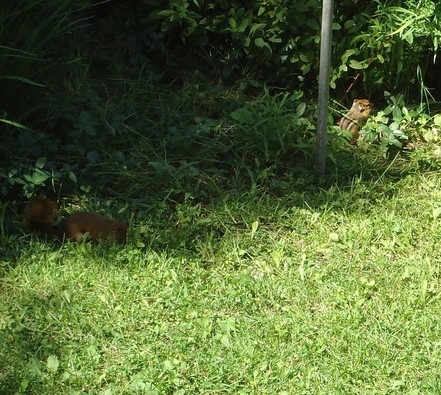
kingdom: Animalia
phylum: Chordata
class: Mammalia
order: Rodentia
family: Sciuridae
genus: Tamiasciurus
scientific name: Tamiasciurus hudsonicus
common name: Red squirrel
